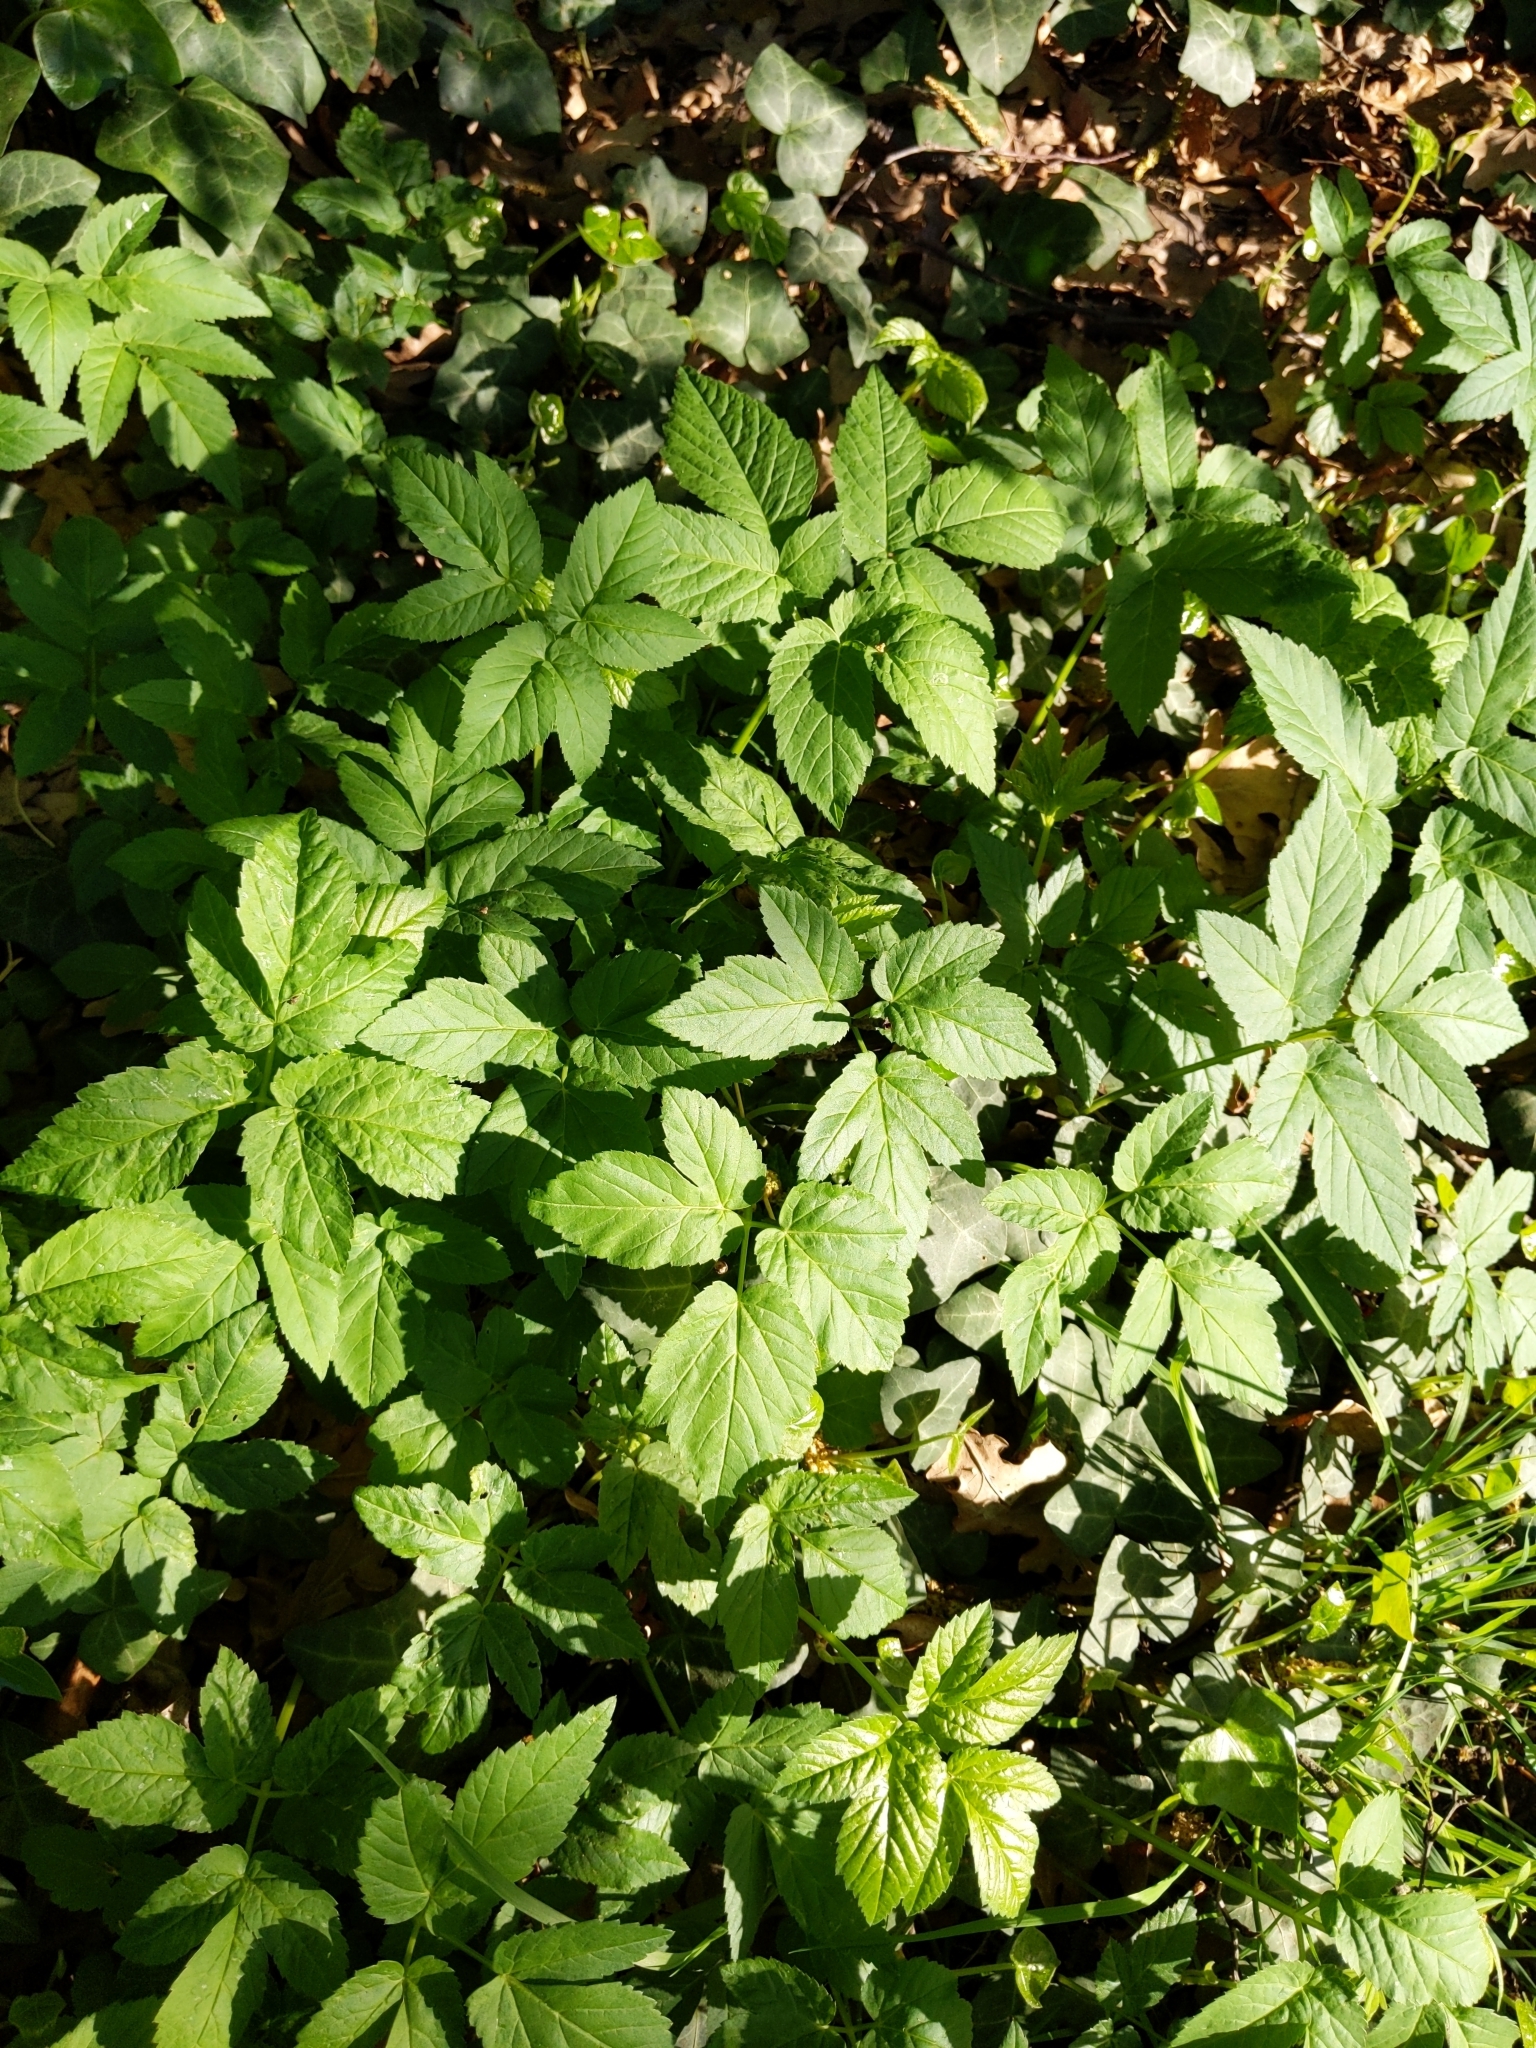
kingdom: Plantae
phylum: Tracheophyta
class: Magnoliopsida
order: Apiales
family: Apiaceae
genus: Aegopodium
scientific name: Aegopodium podagraria
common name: Ground-elder
